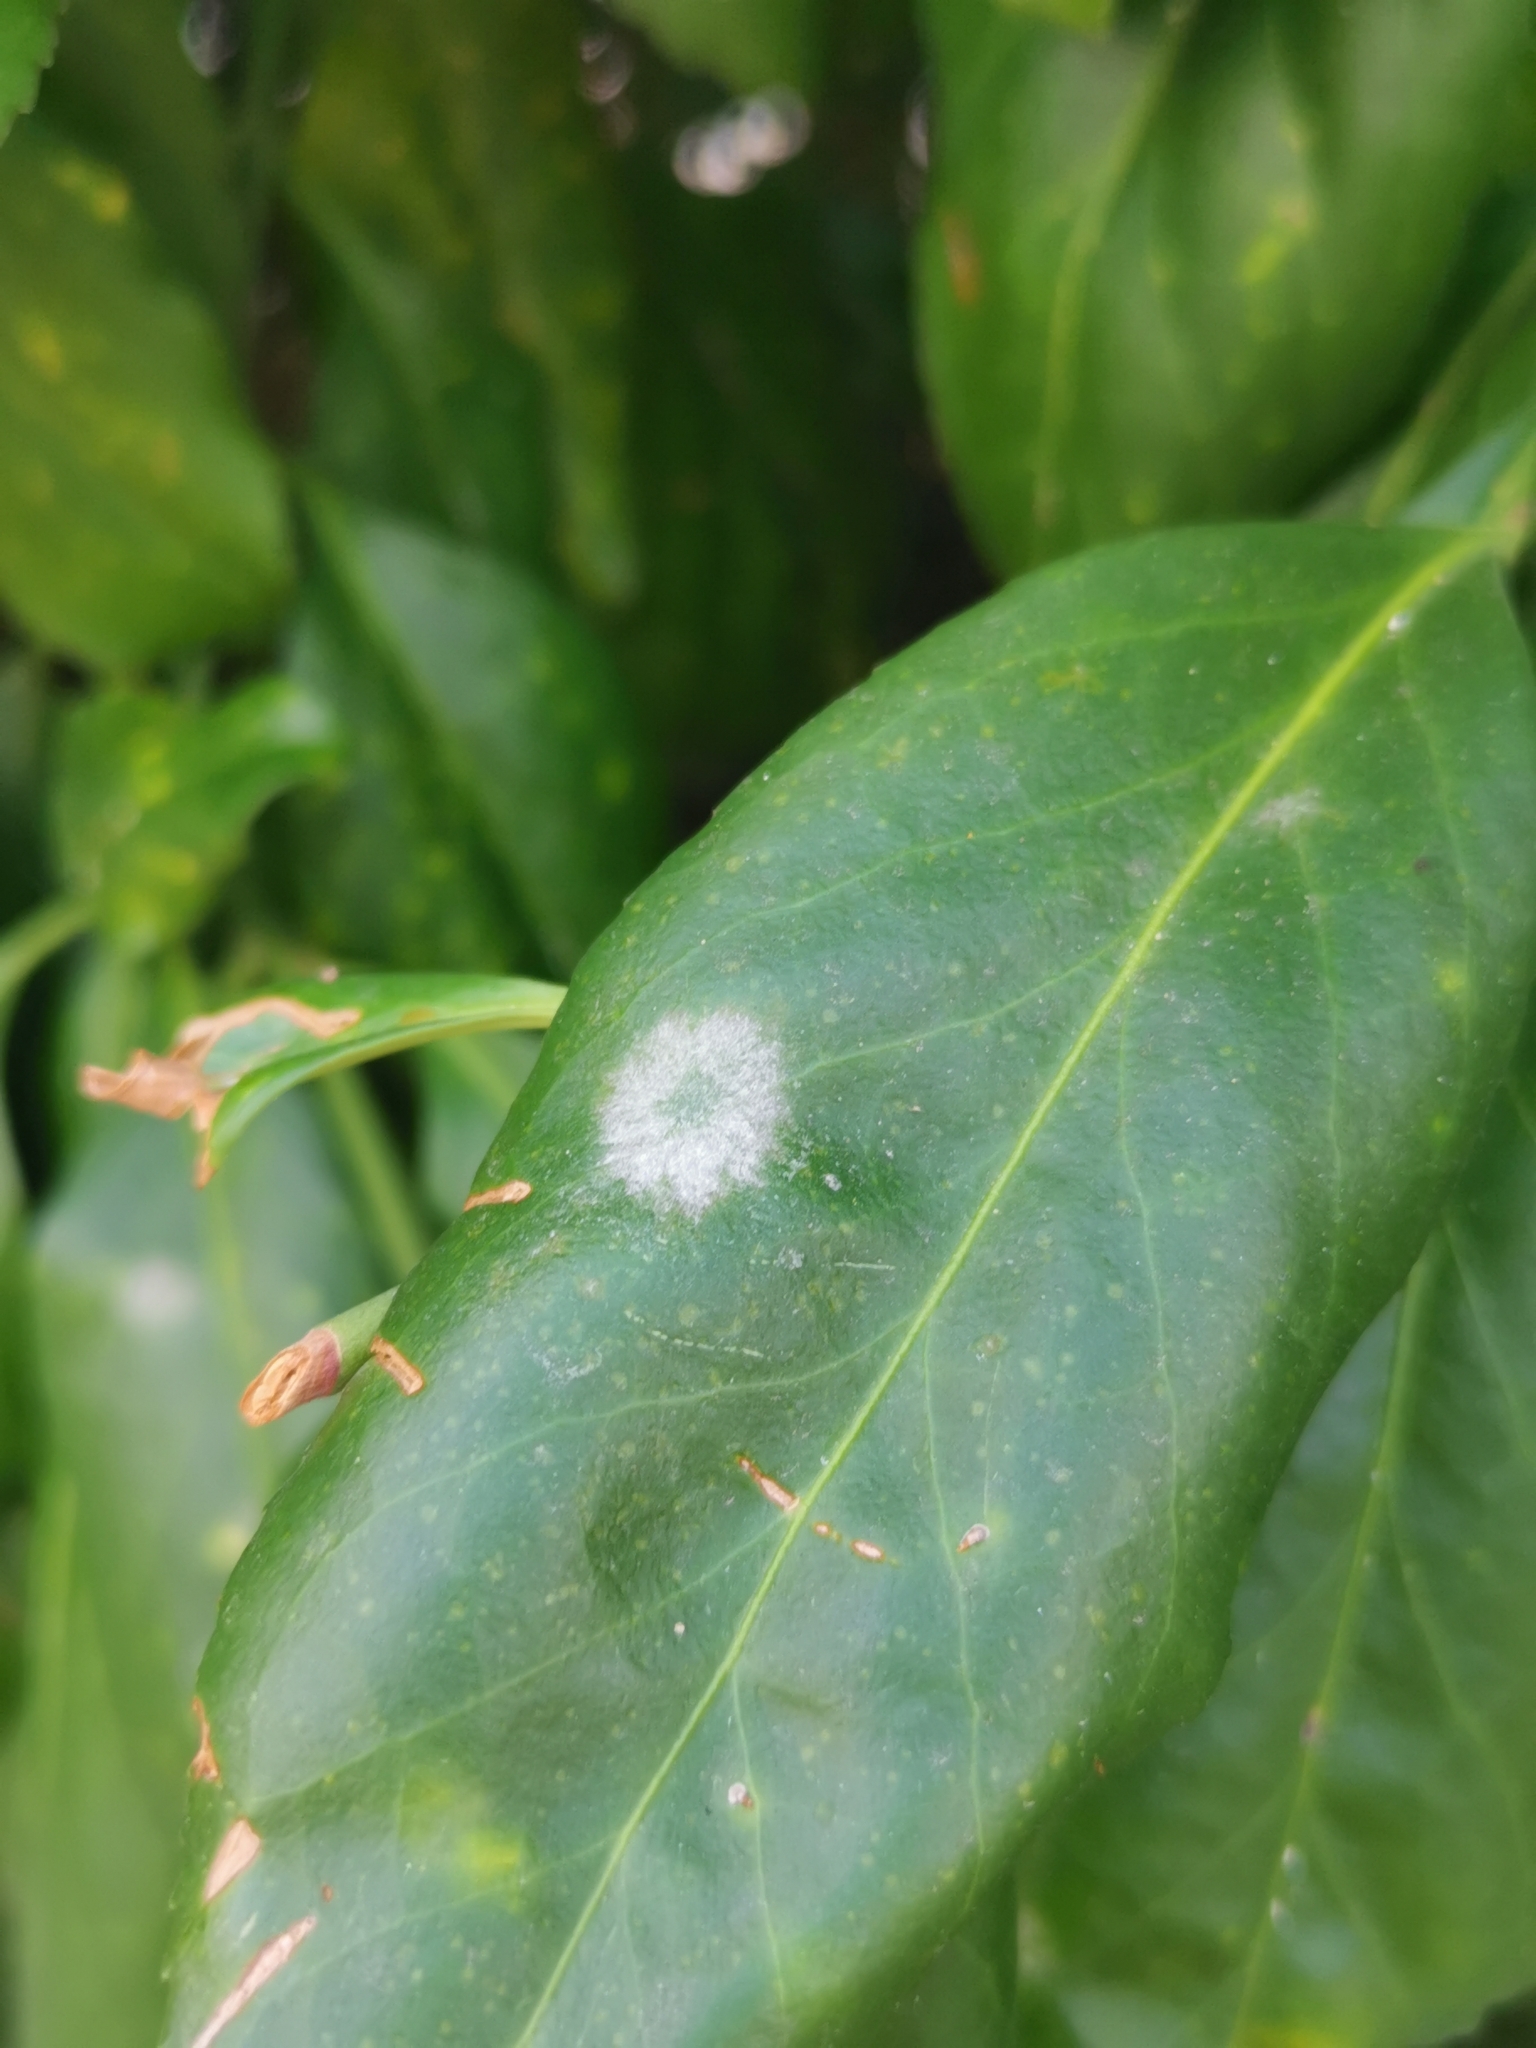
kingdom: Fungi
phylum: Ascomycota
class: Leotiomycetes
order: Helotiales
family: Erysiphaceae
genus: Erysiphe
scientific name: Erysiphe euonymicola
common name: Spindletree mildew
